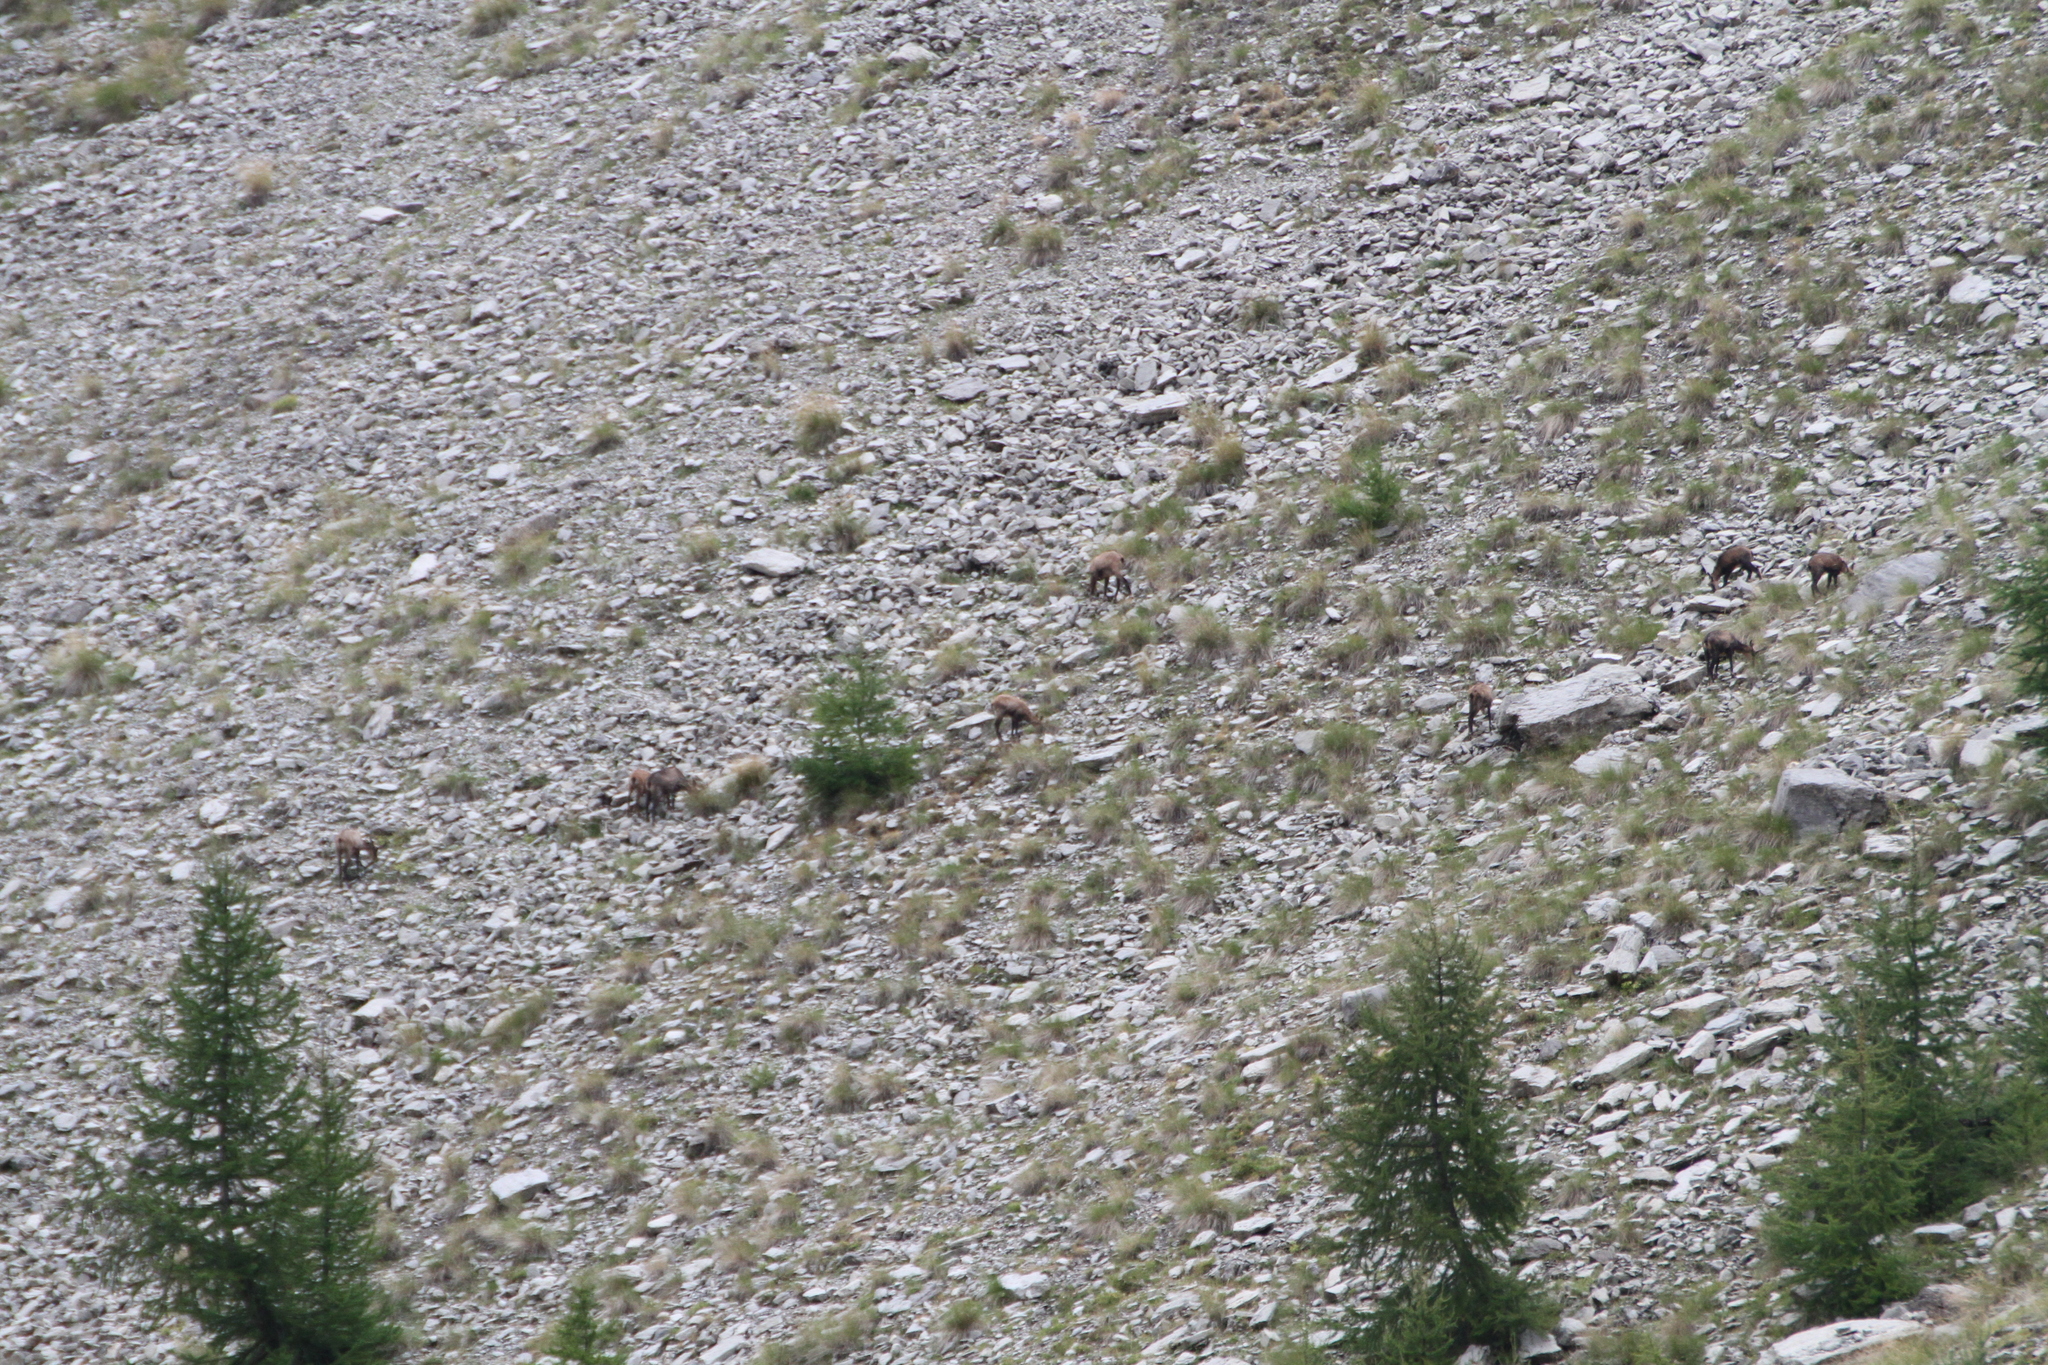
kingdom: Animalia
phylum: Chordata
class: Mammalia
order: Artiodactyla
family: Bovidae
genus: Rupicapra
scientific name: Rupicapra rupicapra
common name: Chamois
